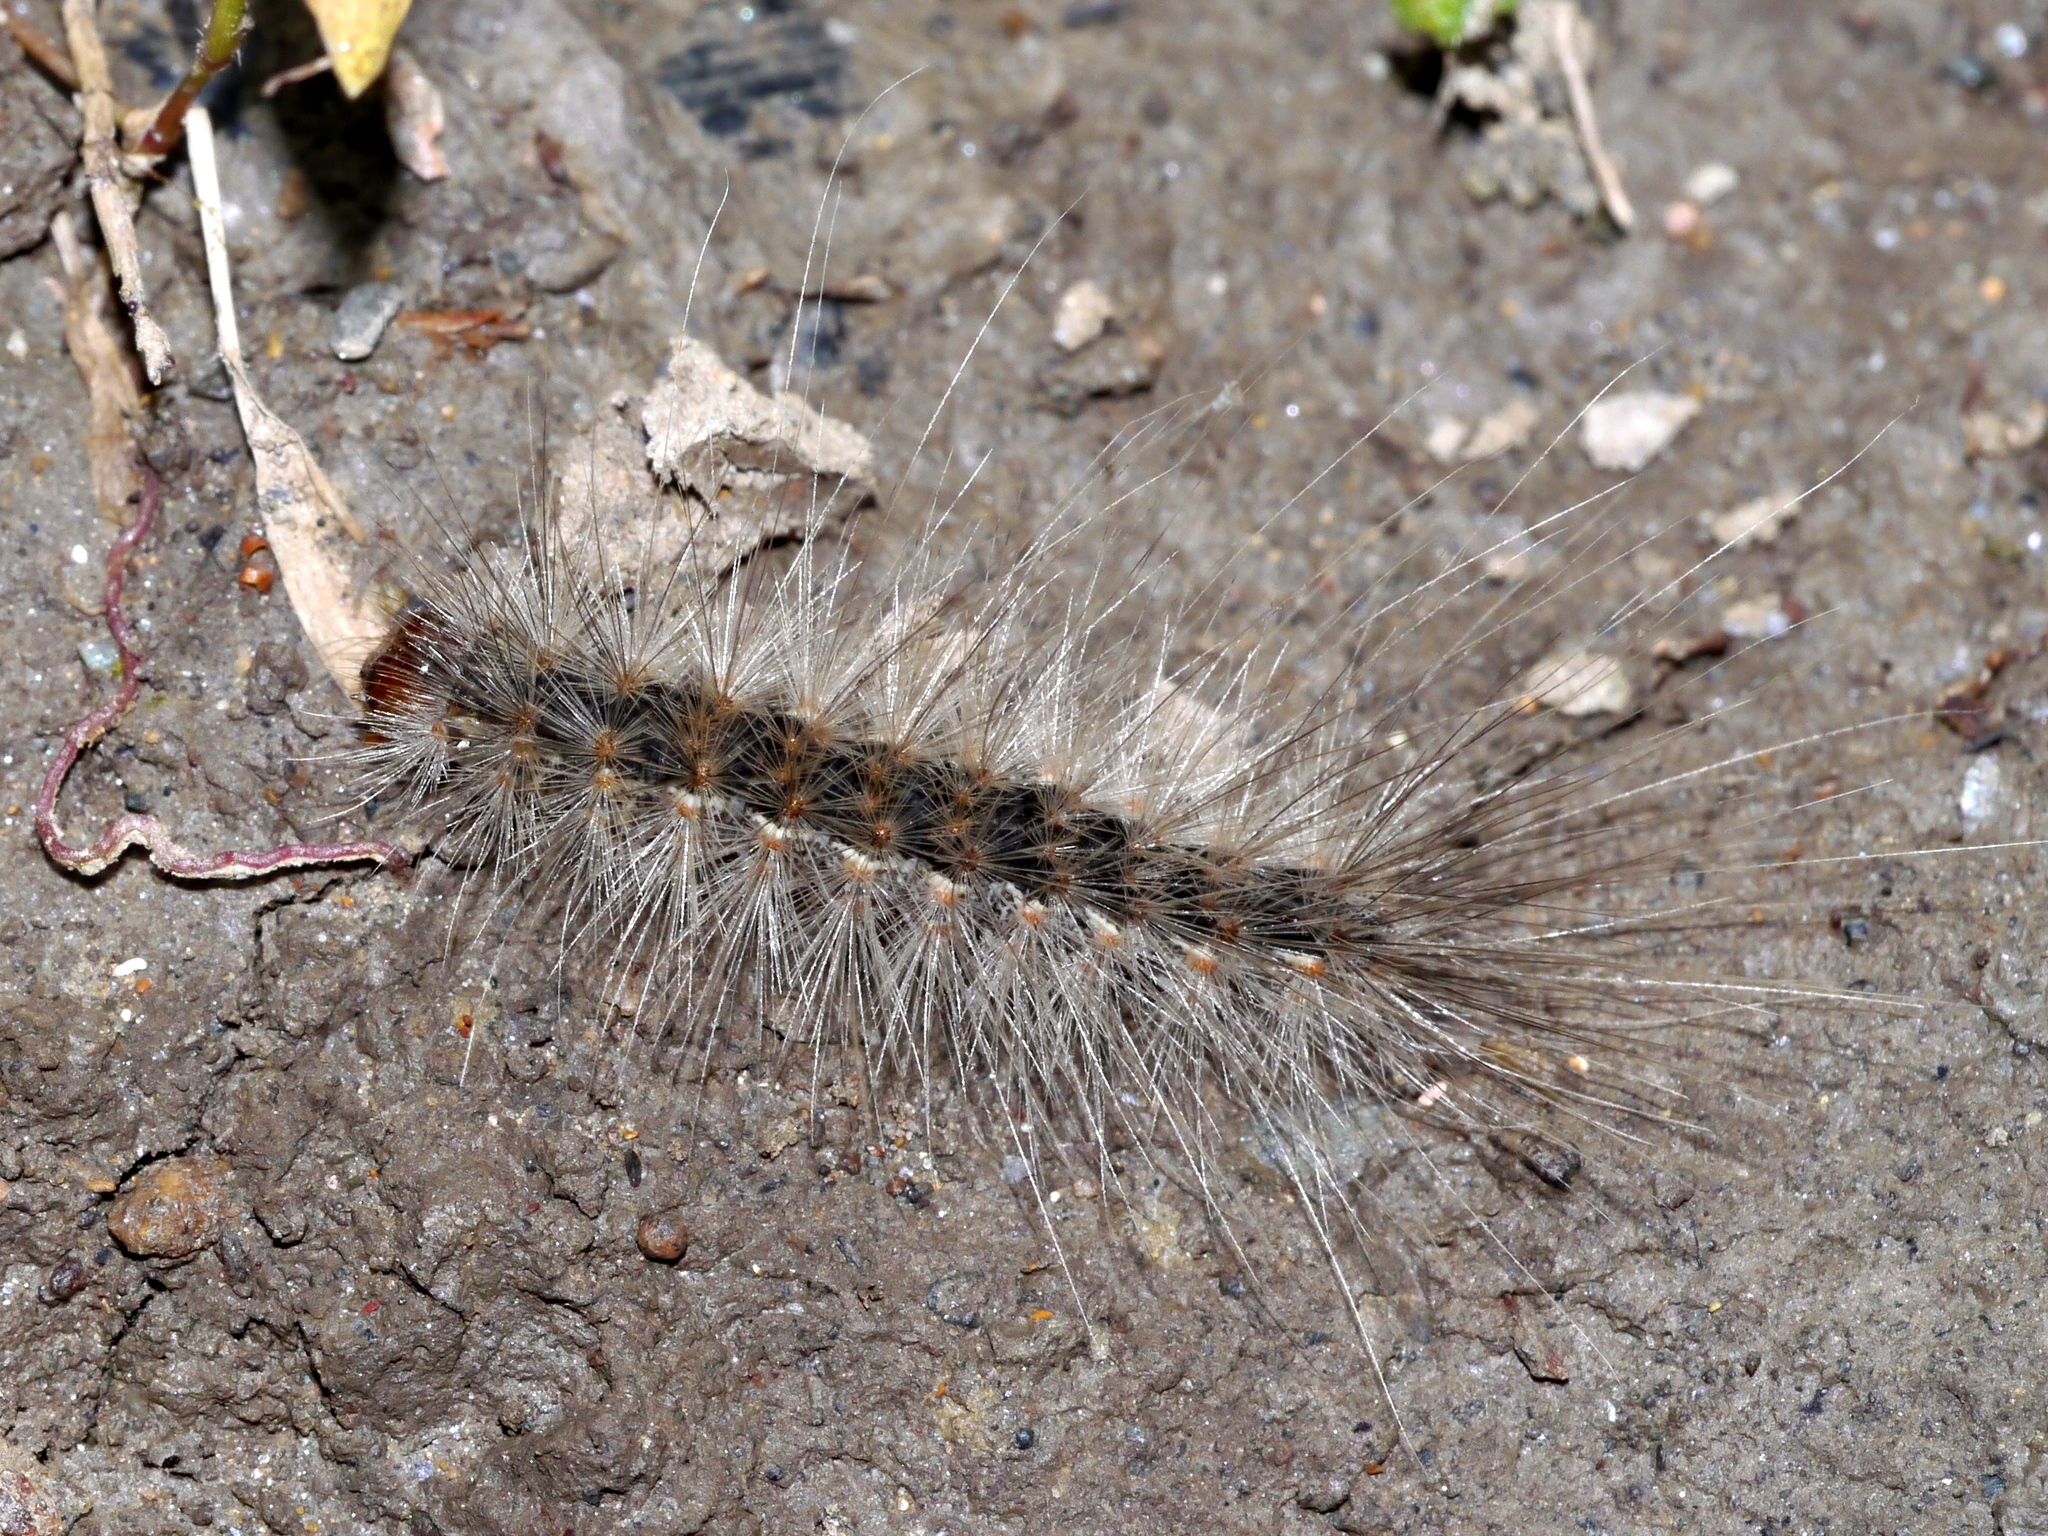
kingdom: Animalia
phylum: Arthropoda
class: Insecta
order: Lepidoptera
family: Erebidae
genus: Hyphantria
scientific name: Hyphantria cunea
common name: American white moth
